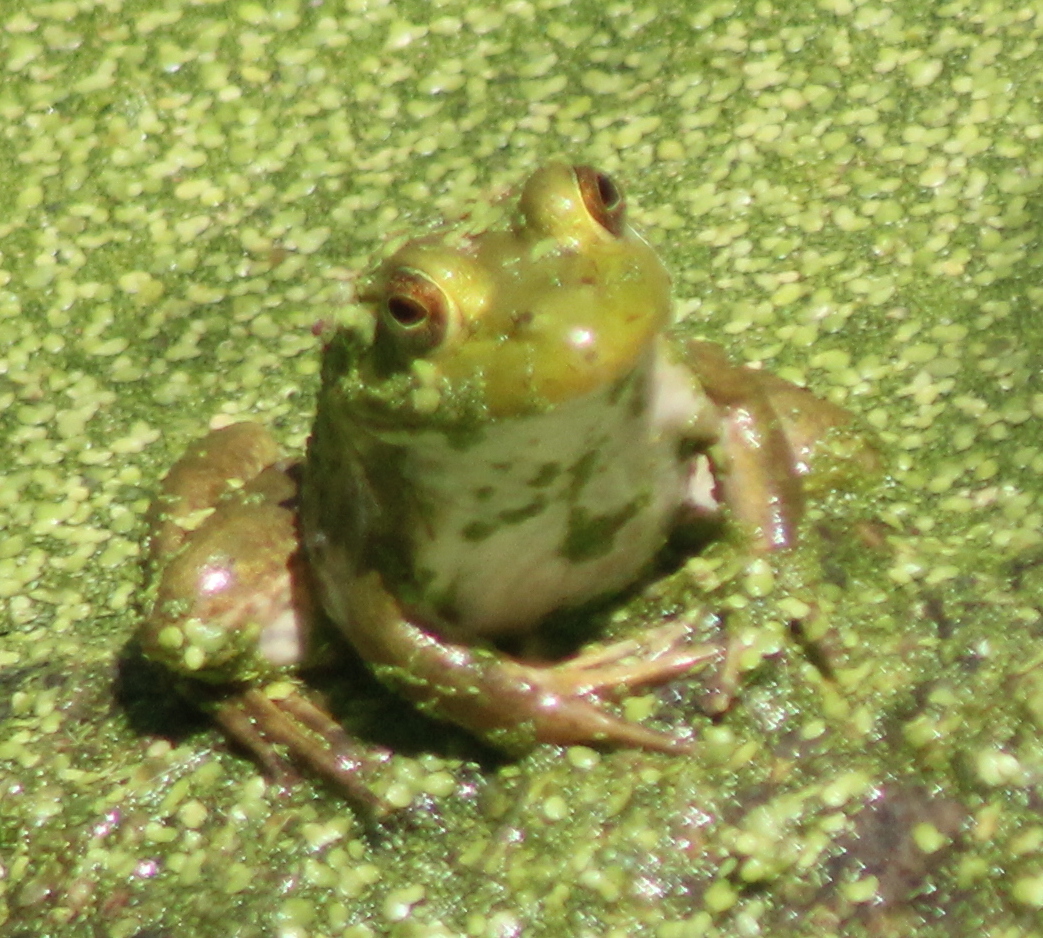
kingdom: Animalia
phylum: Chordata
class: Amphibia
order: Anura
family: Ranidae
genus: Lithobates
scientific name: Lithobates catesbeianus
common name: American bullfrog
